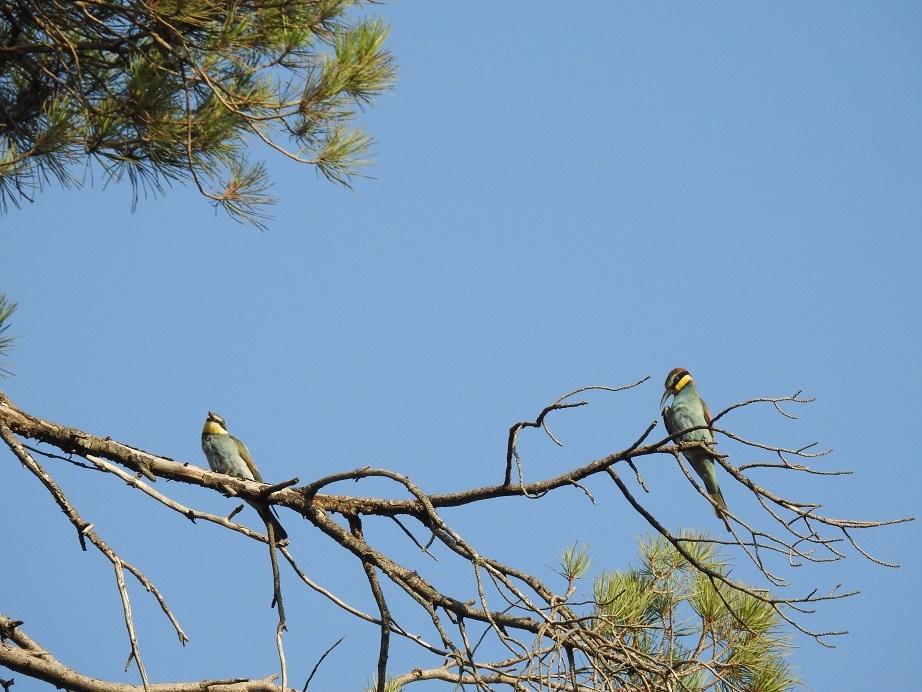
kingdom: Animalia
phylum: Chordata
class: Aves
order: Coraciiformes
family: Meropidae
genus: Merops
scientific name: Merops apiaster
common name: European bee-eater
